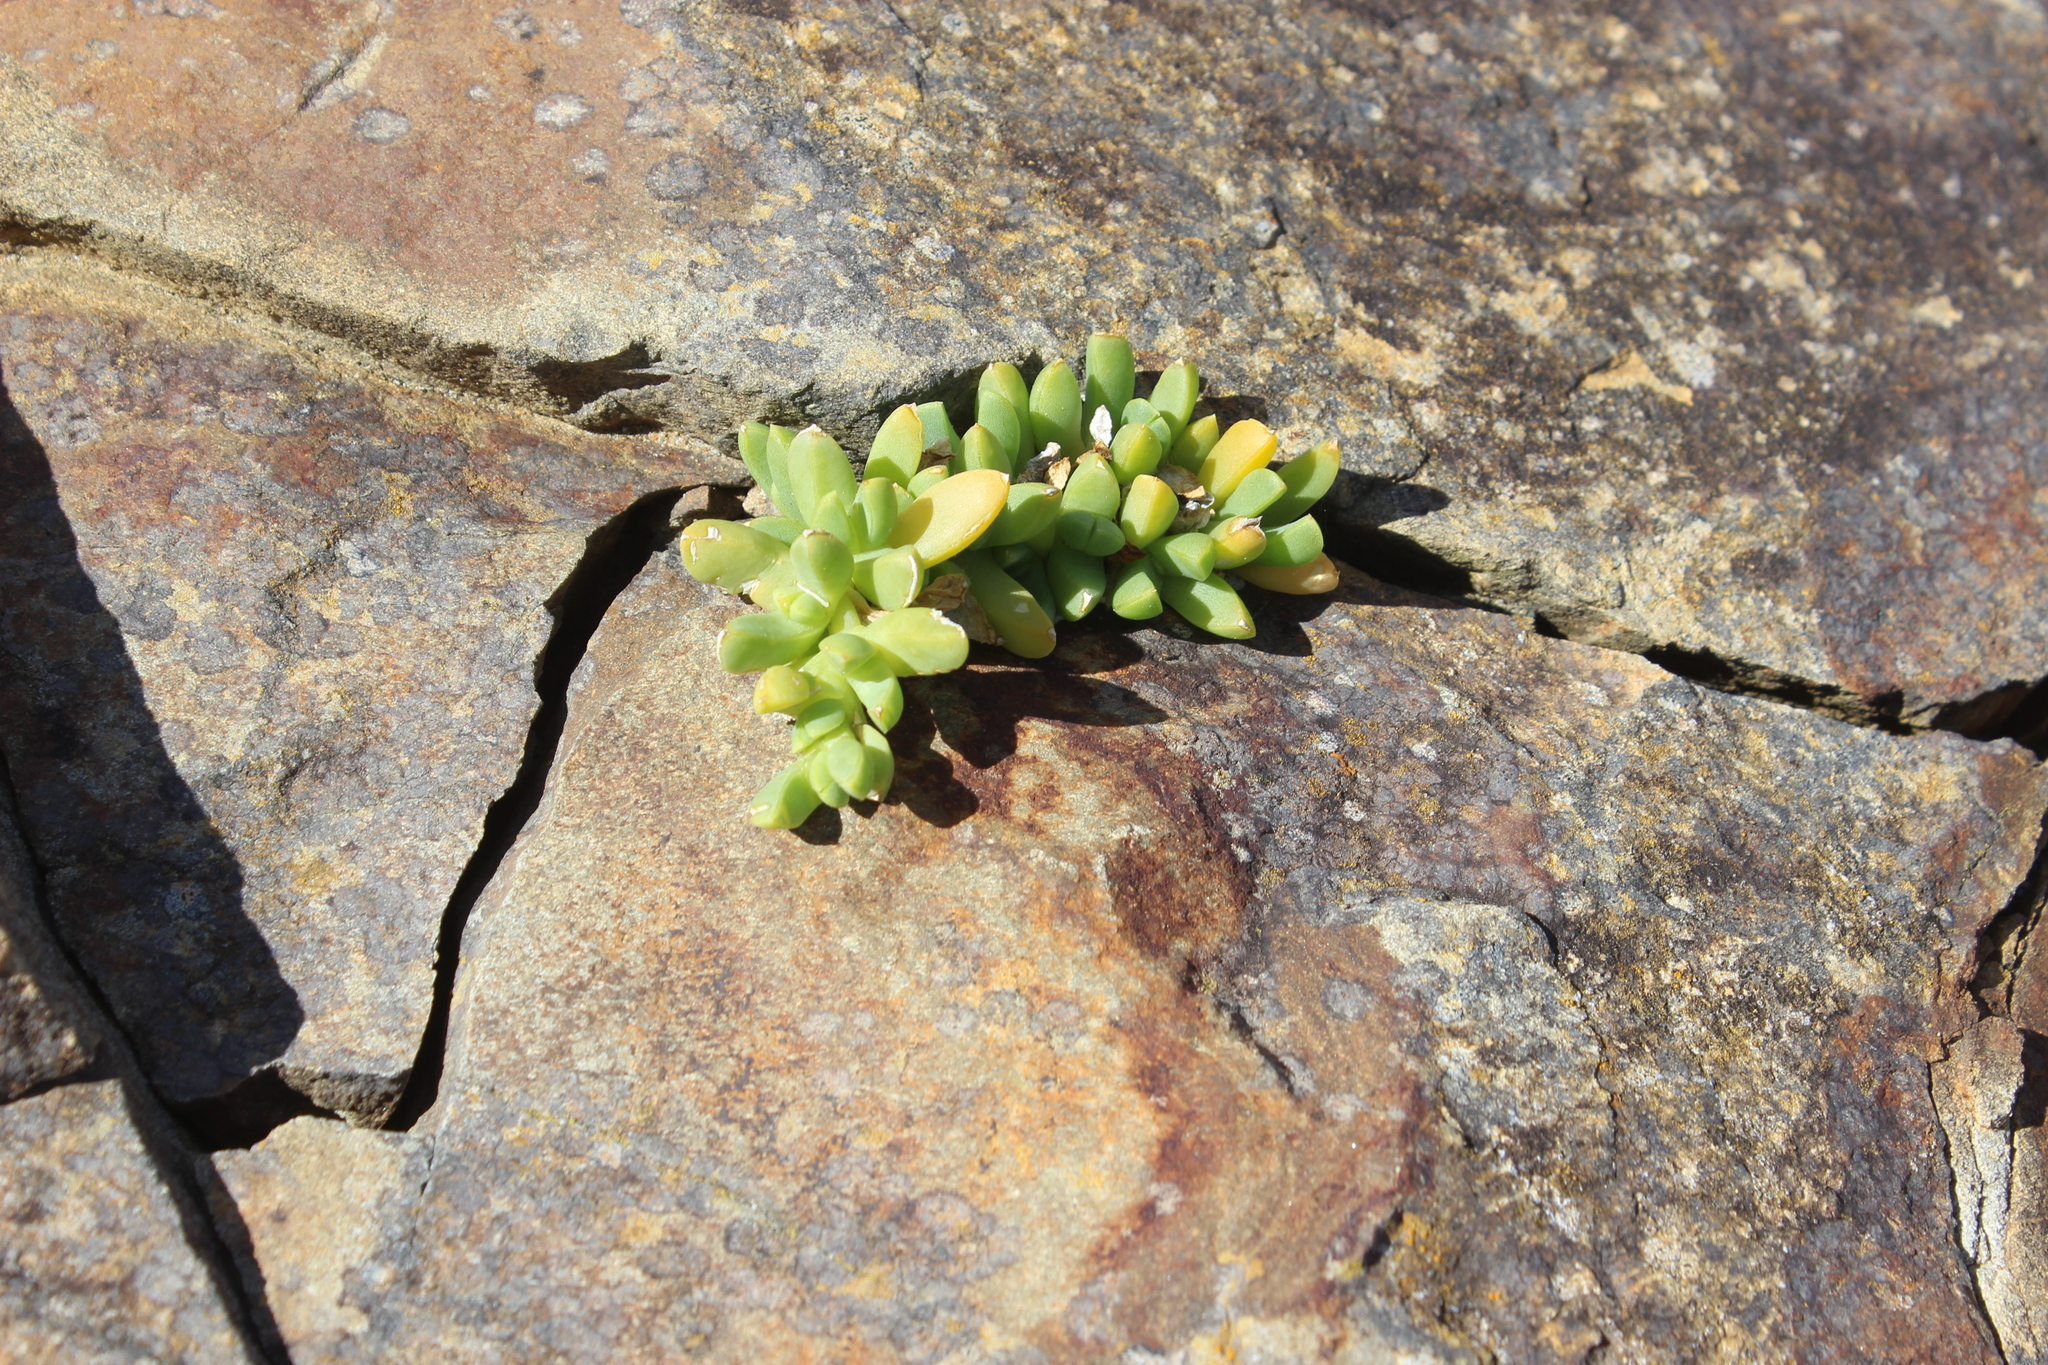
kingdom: Plantae
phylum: Tracheophyta
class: Magnoliopsida
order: Caryophyllales
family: Aizoaceae
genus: Disphyma
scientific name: Disphyma australe
